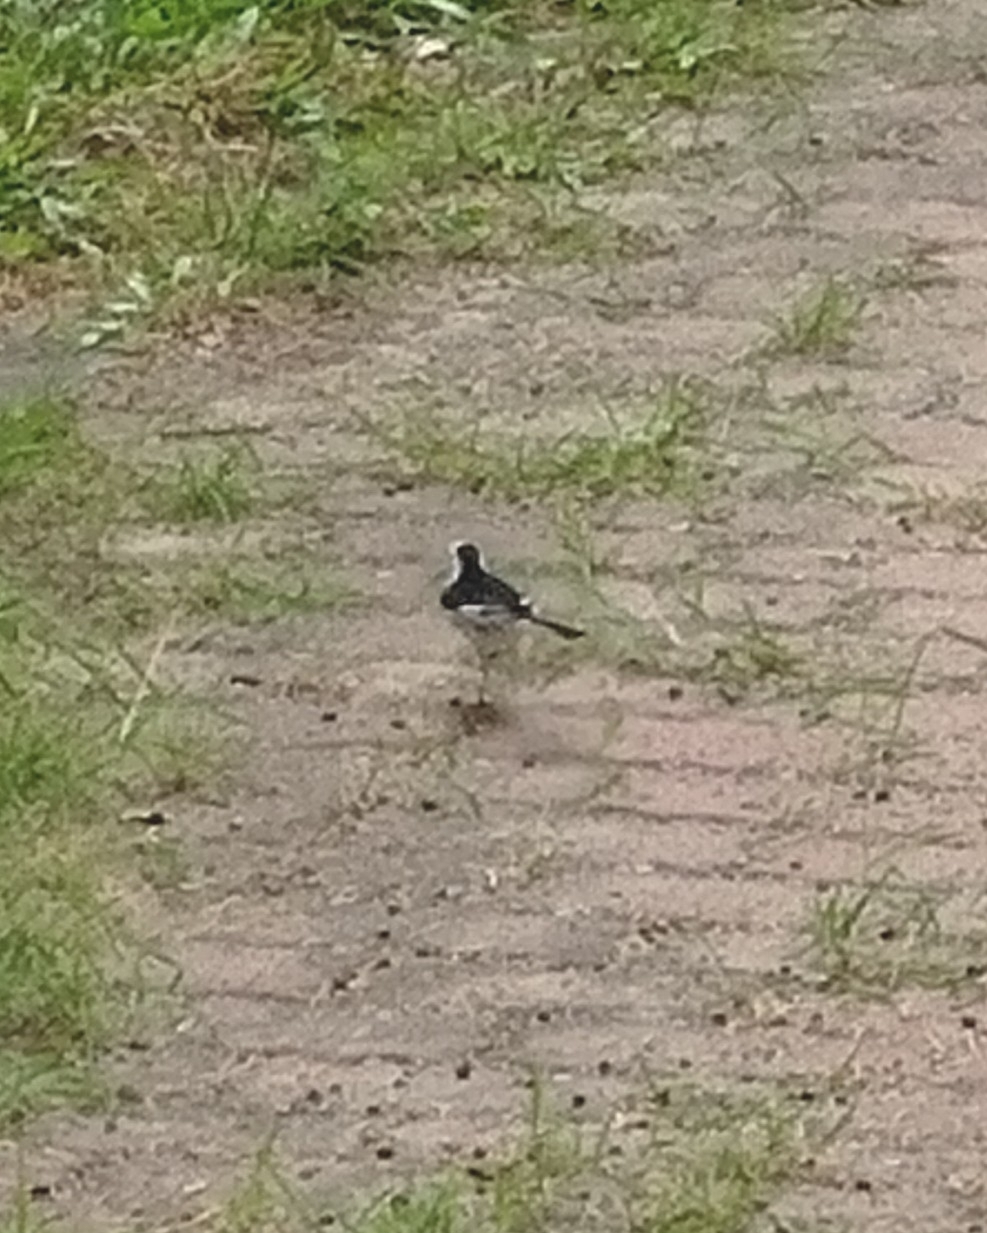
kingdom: Animalia
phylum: Chordata
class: Aves
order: Passeriformes
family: Motacillidae
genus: Motacilla
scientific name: Motacilla alba
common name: White wagtail
